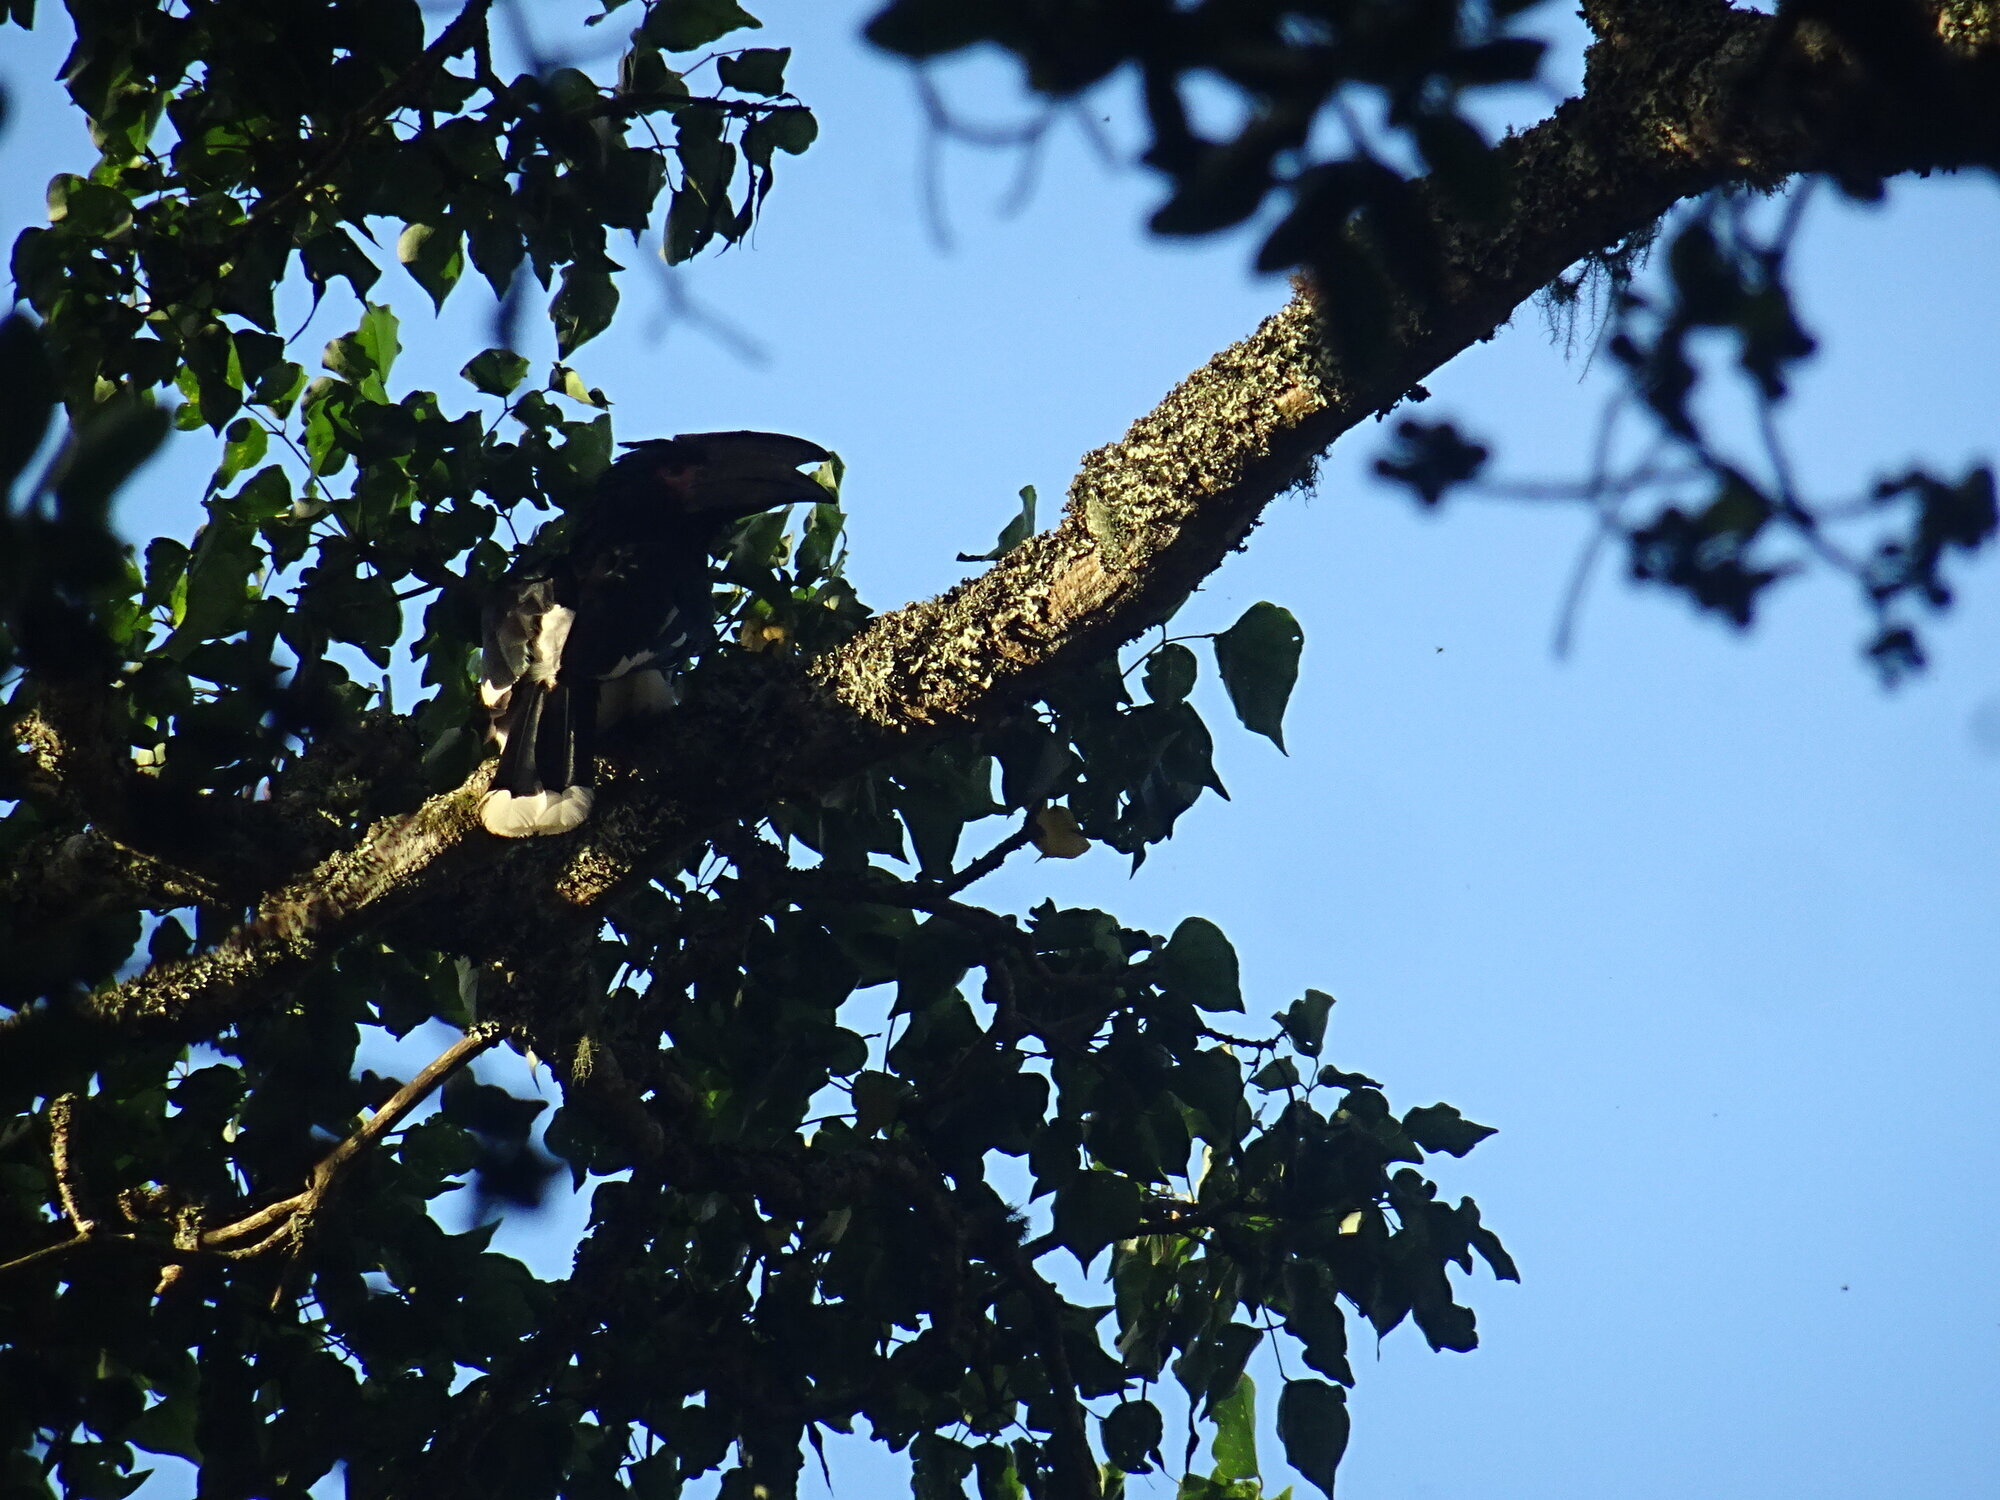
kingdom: Animalia
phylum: Chordata
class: Aves
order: Bucerotiformes
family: Bucerotidae
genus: Bycanistes
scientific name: Bycanistes bucinator
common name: Trumpeter hornbill
